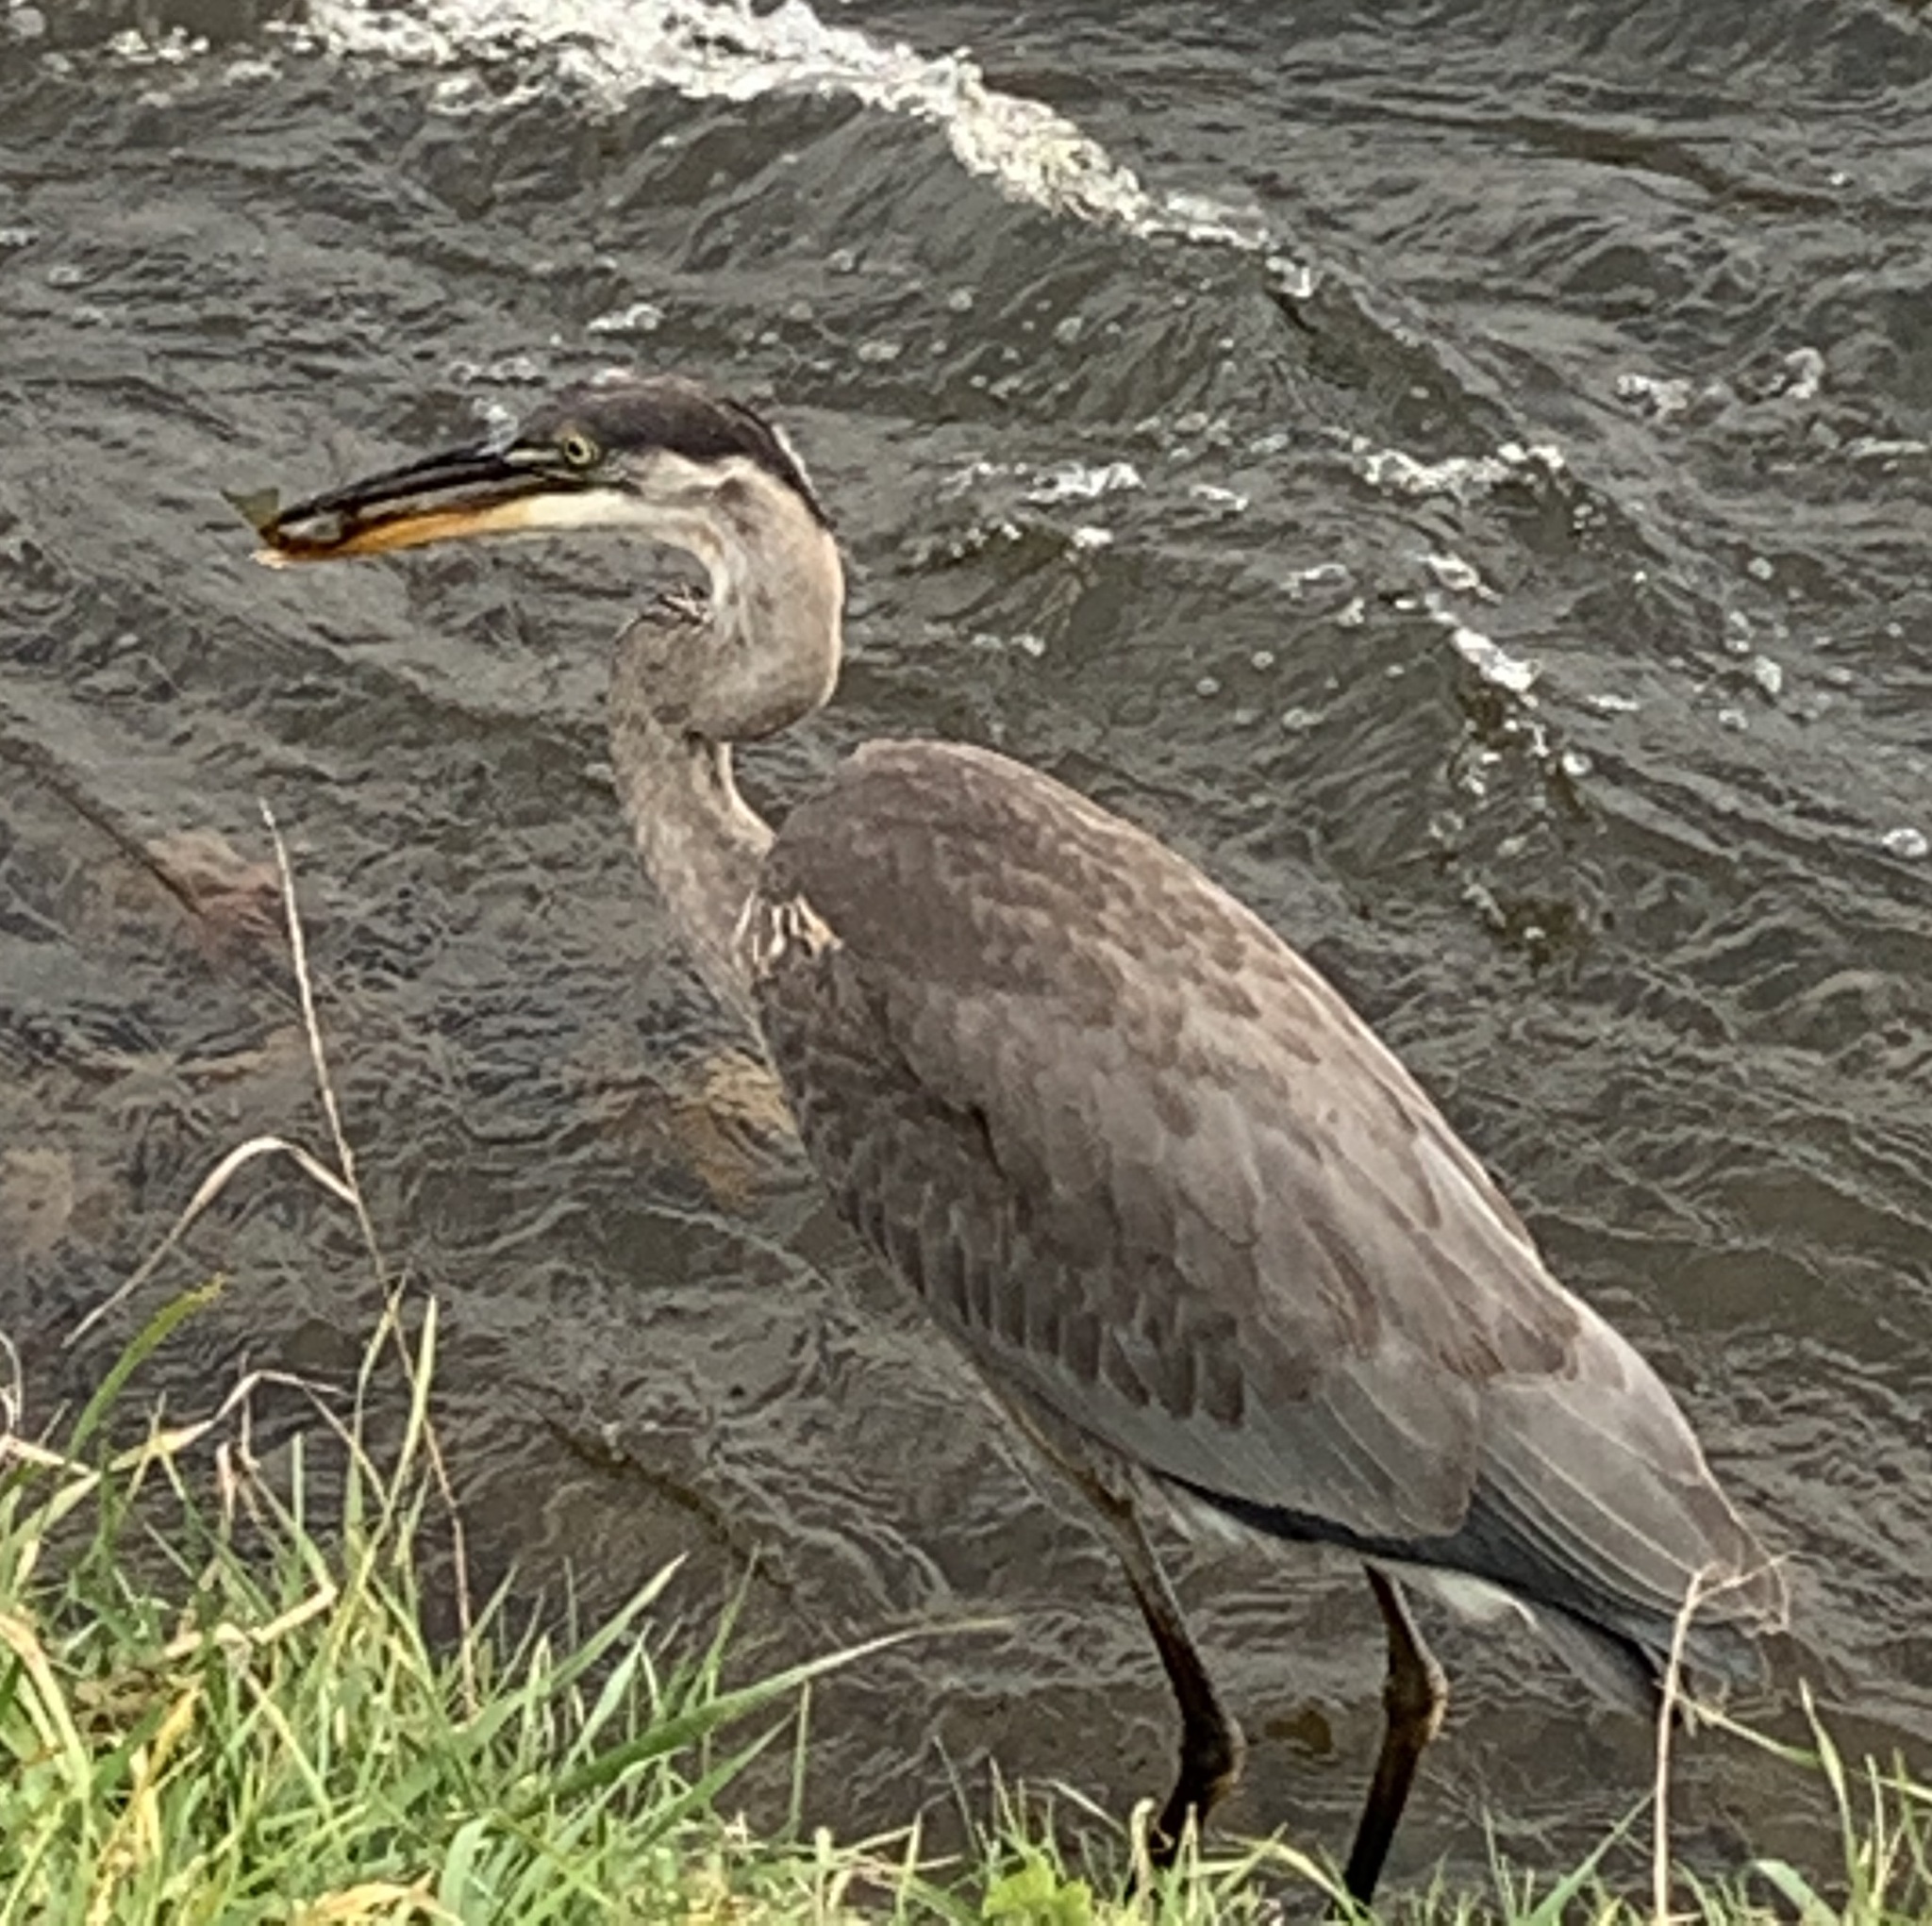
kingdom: Animalia
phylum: Chordata
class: Aves
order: Pelecaniformes
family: Ardeidae
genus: Ardea
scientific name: Ardea herodias
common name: Great blue heron
